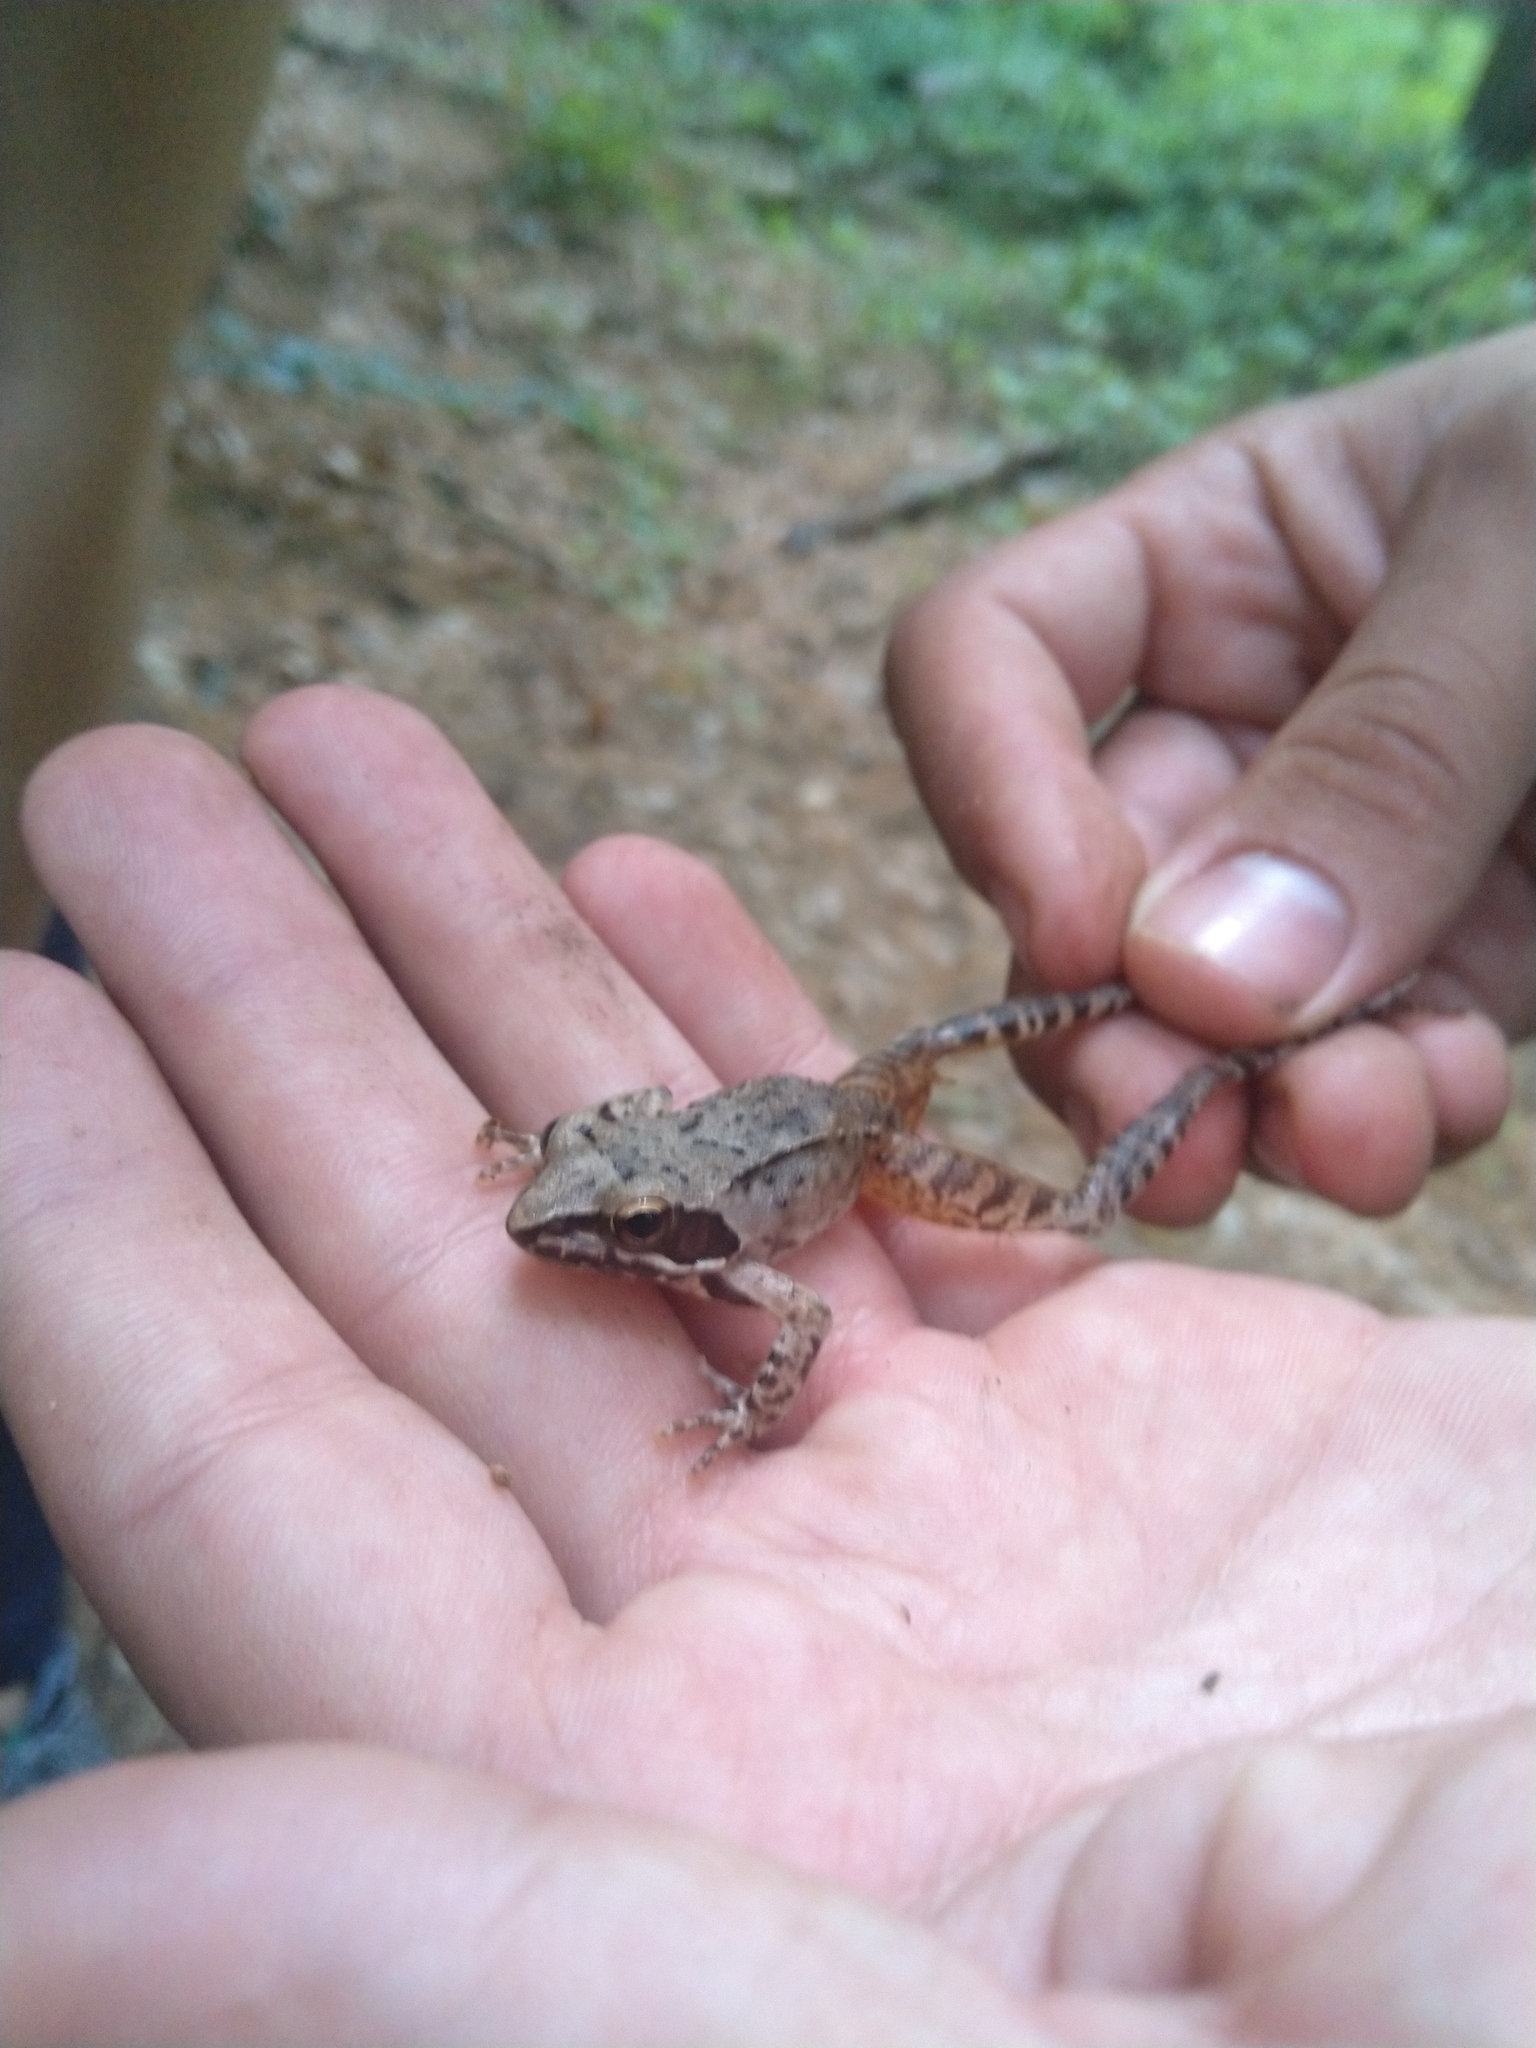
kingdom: Animalia
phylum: Chordata
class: Amphibia
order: Anura
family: Ranidae
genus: Rana
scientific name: Rana pseudodalmatina
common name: Hyrcanian frog
